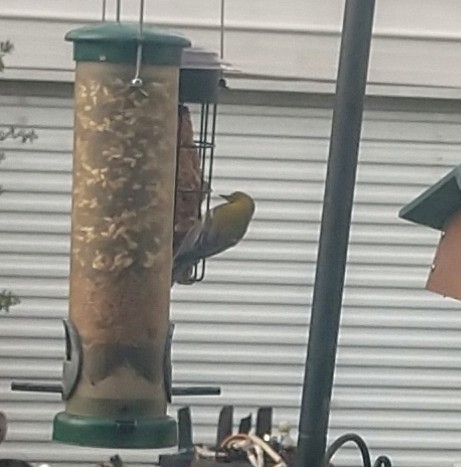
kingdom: Animalia
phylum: Chordata
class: Aves
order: Passeriformes
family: Parulidae
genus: Setophaga
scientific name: Setophaga pinus
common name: Pine warbler
